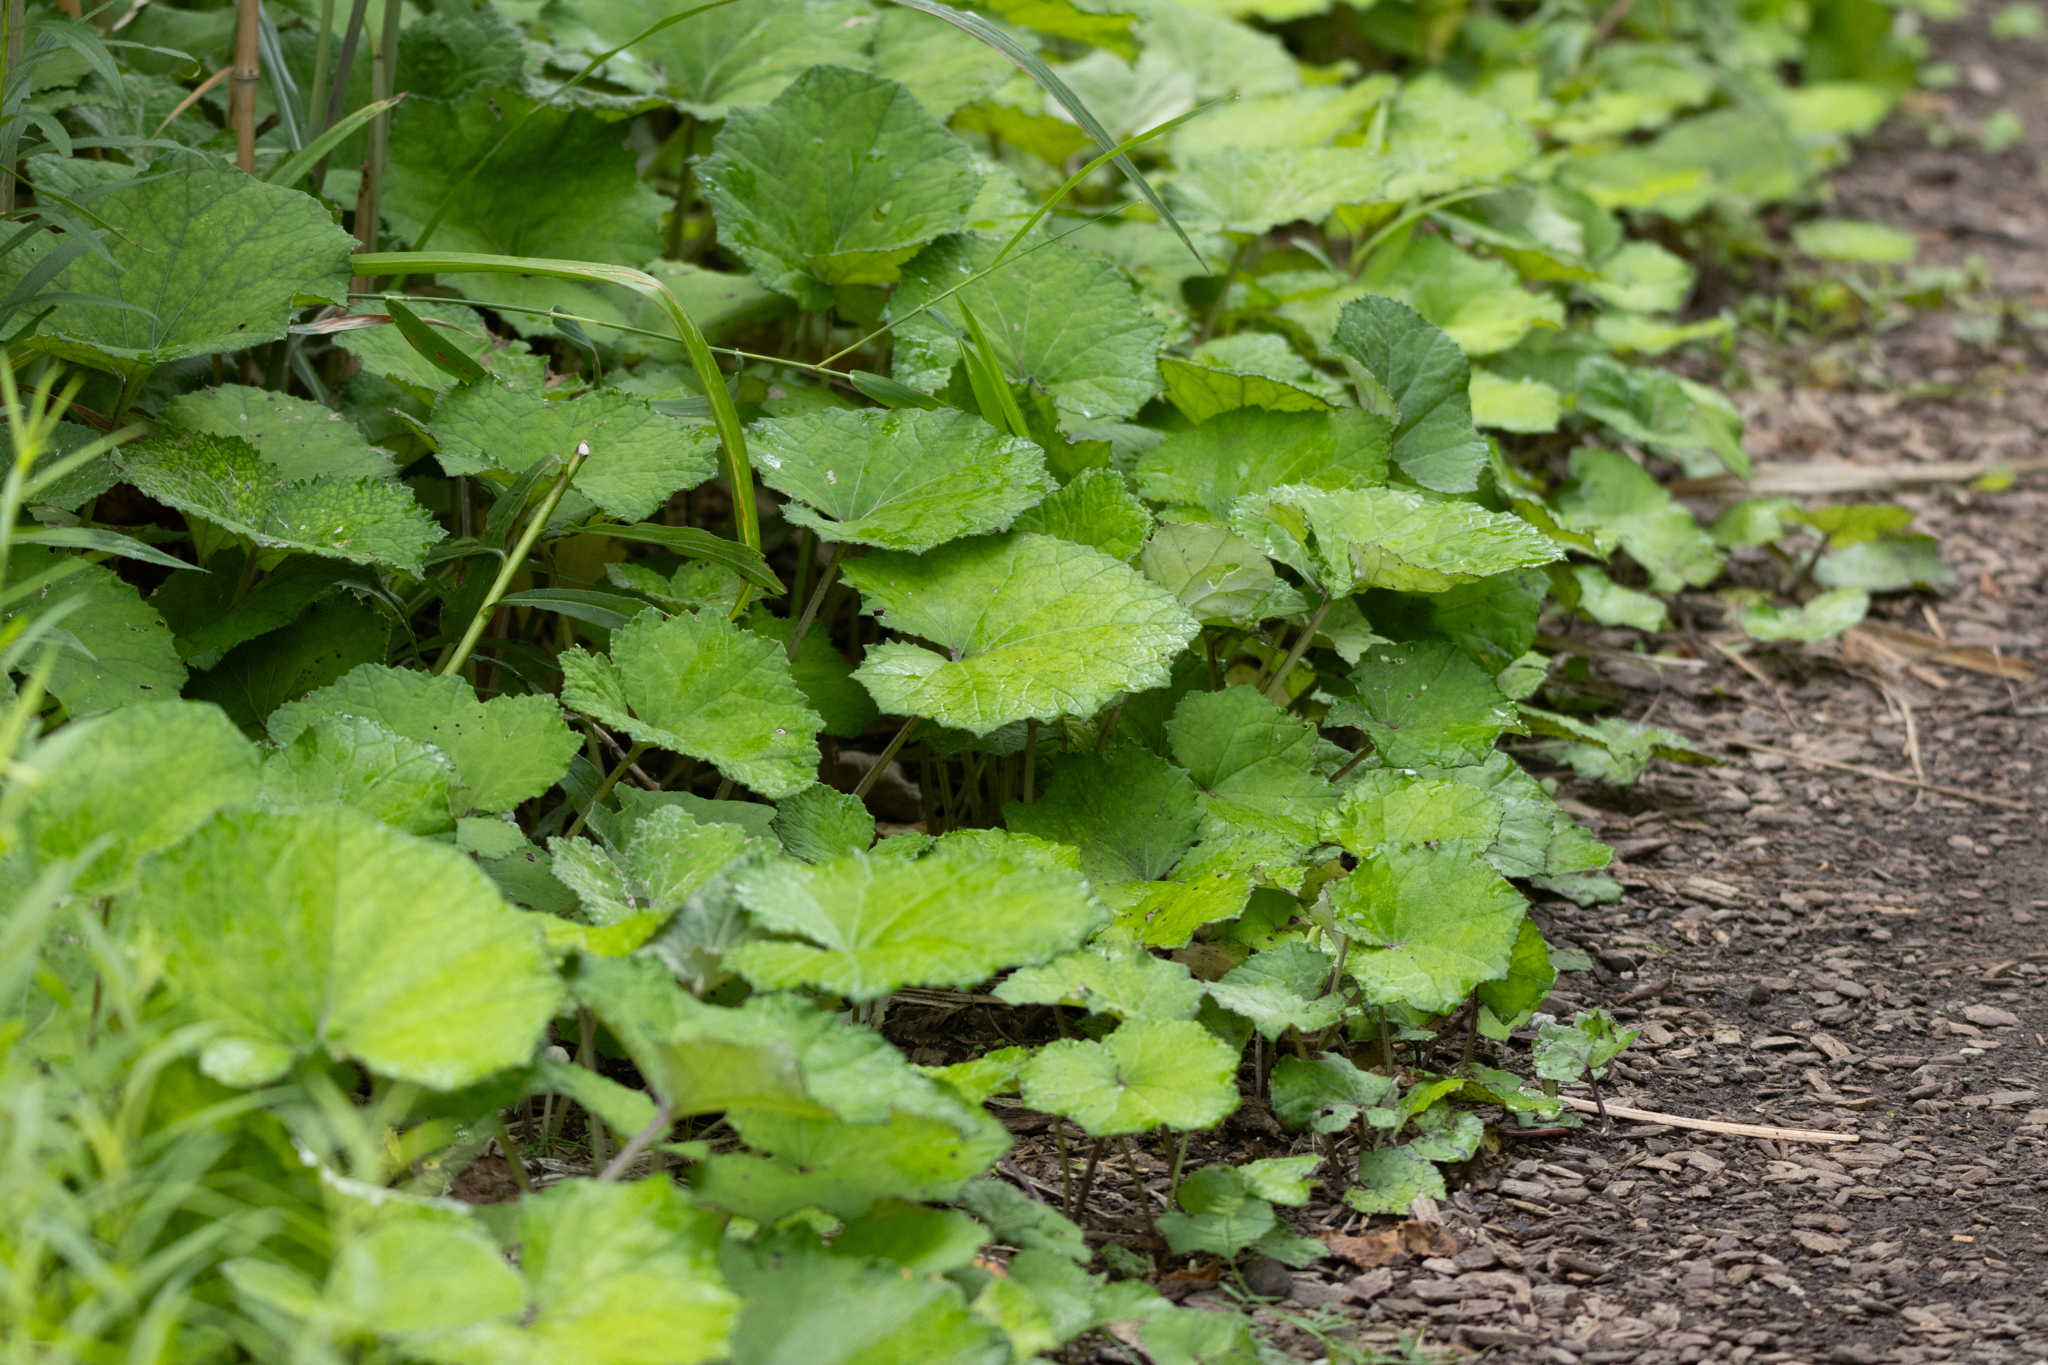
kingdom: Plantae
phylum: Tracheophyta
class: Magnoliopsida
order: Asterales
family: Asteraceae
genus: Tussilago
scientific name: Tussilago farfara
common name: Coltsfoot
